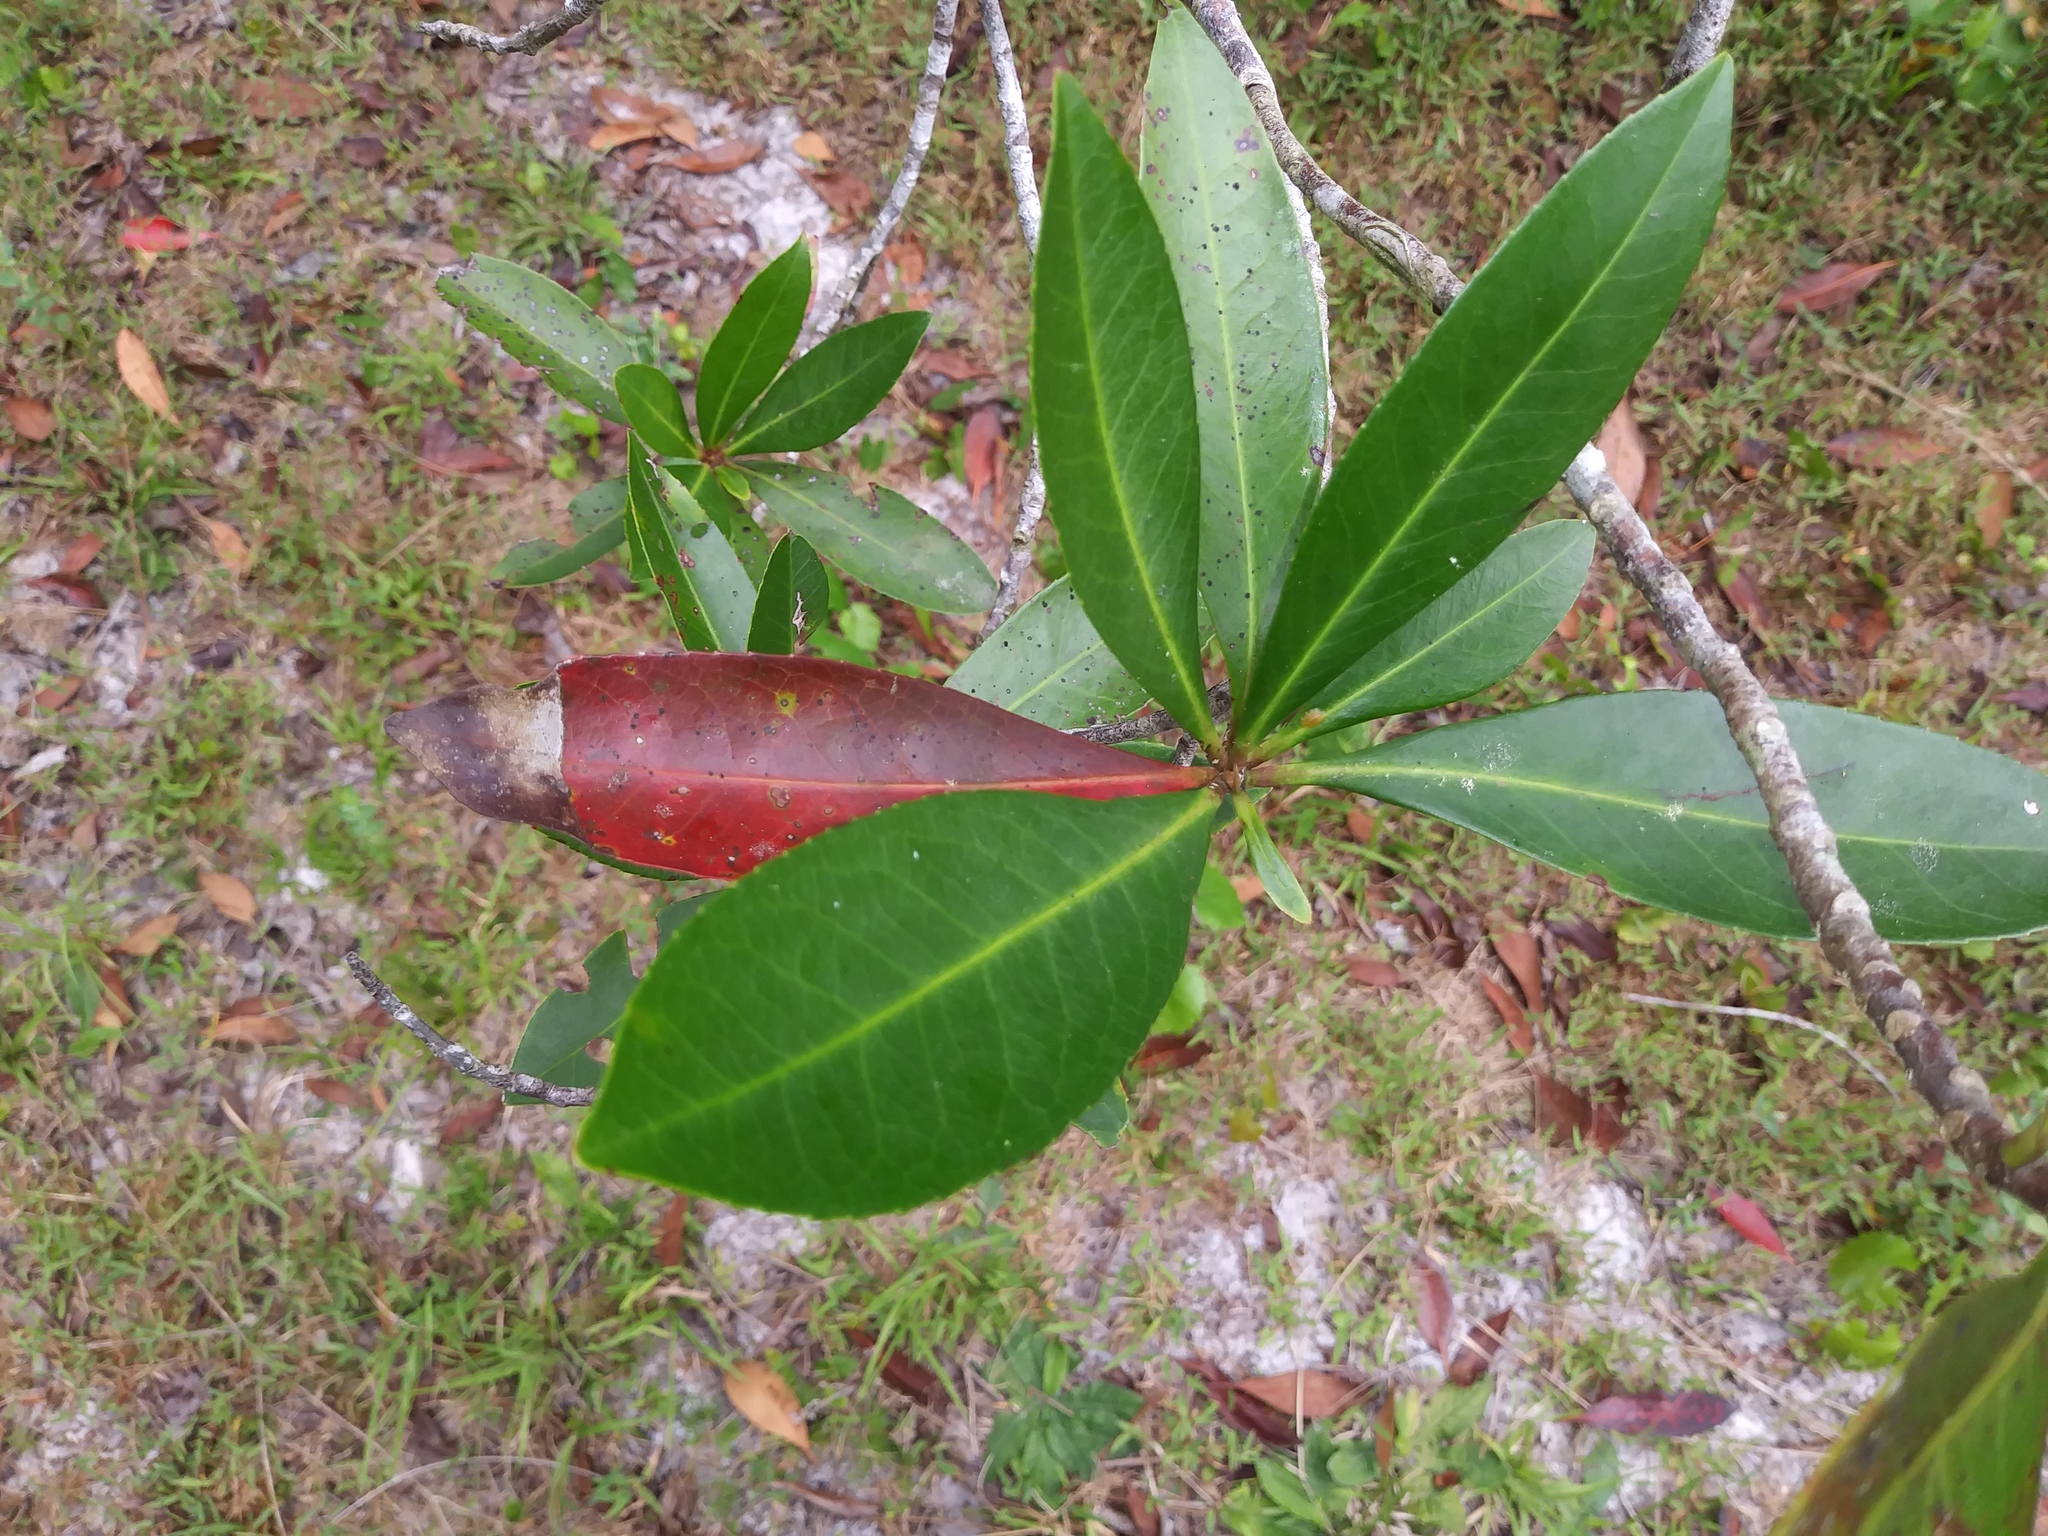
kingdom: Plantae
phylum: Tracheophyta
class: Magnoliopsida
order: Ericales
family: Theaceae
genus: Gordonia
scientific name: Gordonia lasianthus
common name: Loblolly bay
